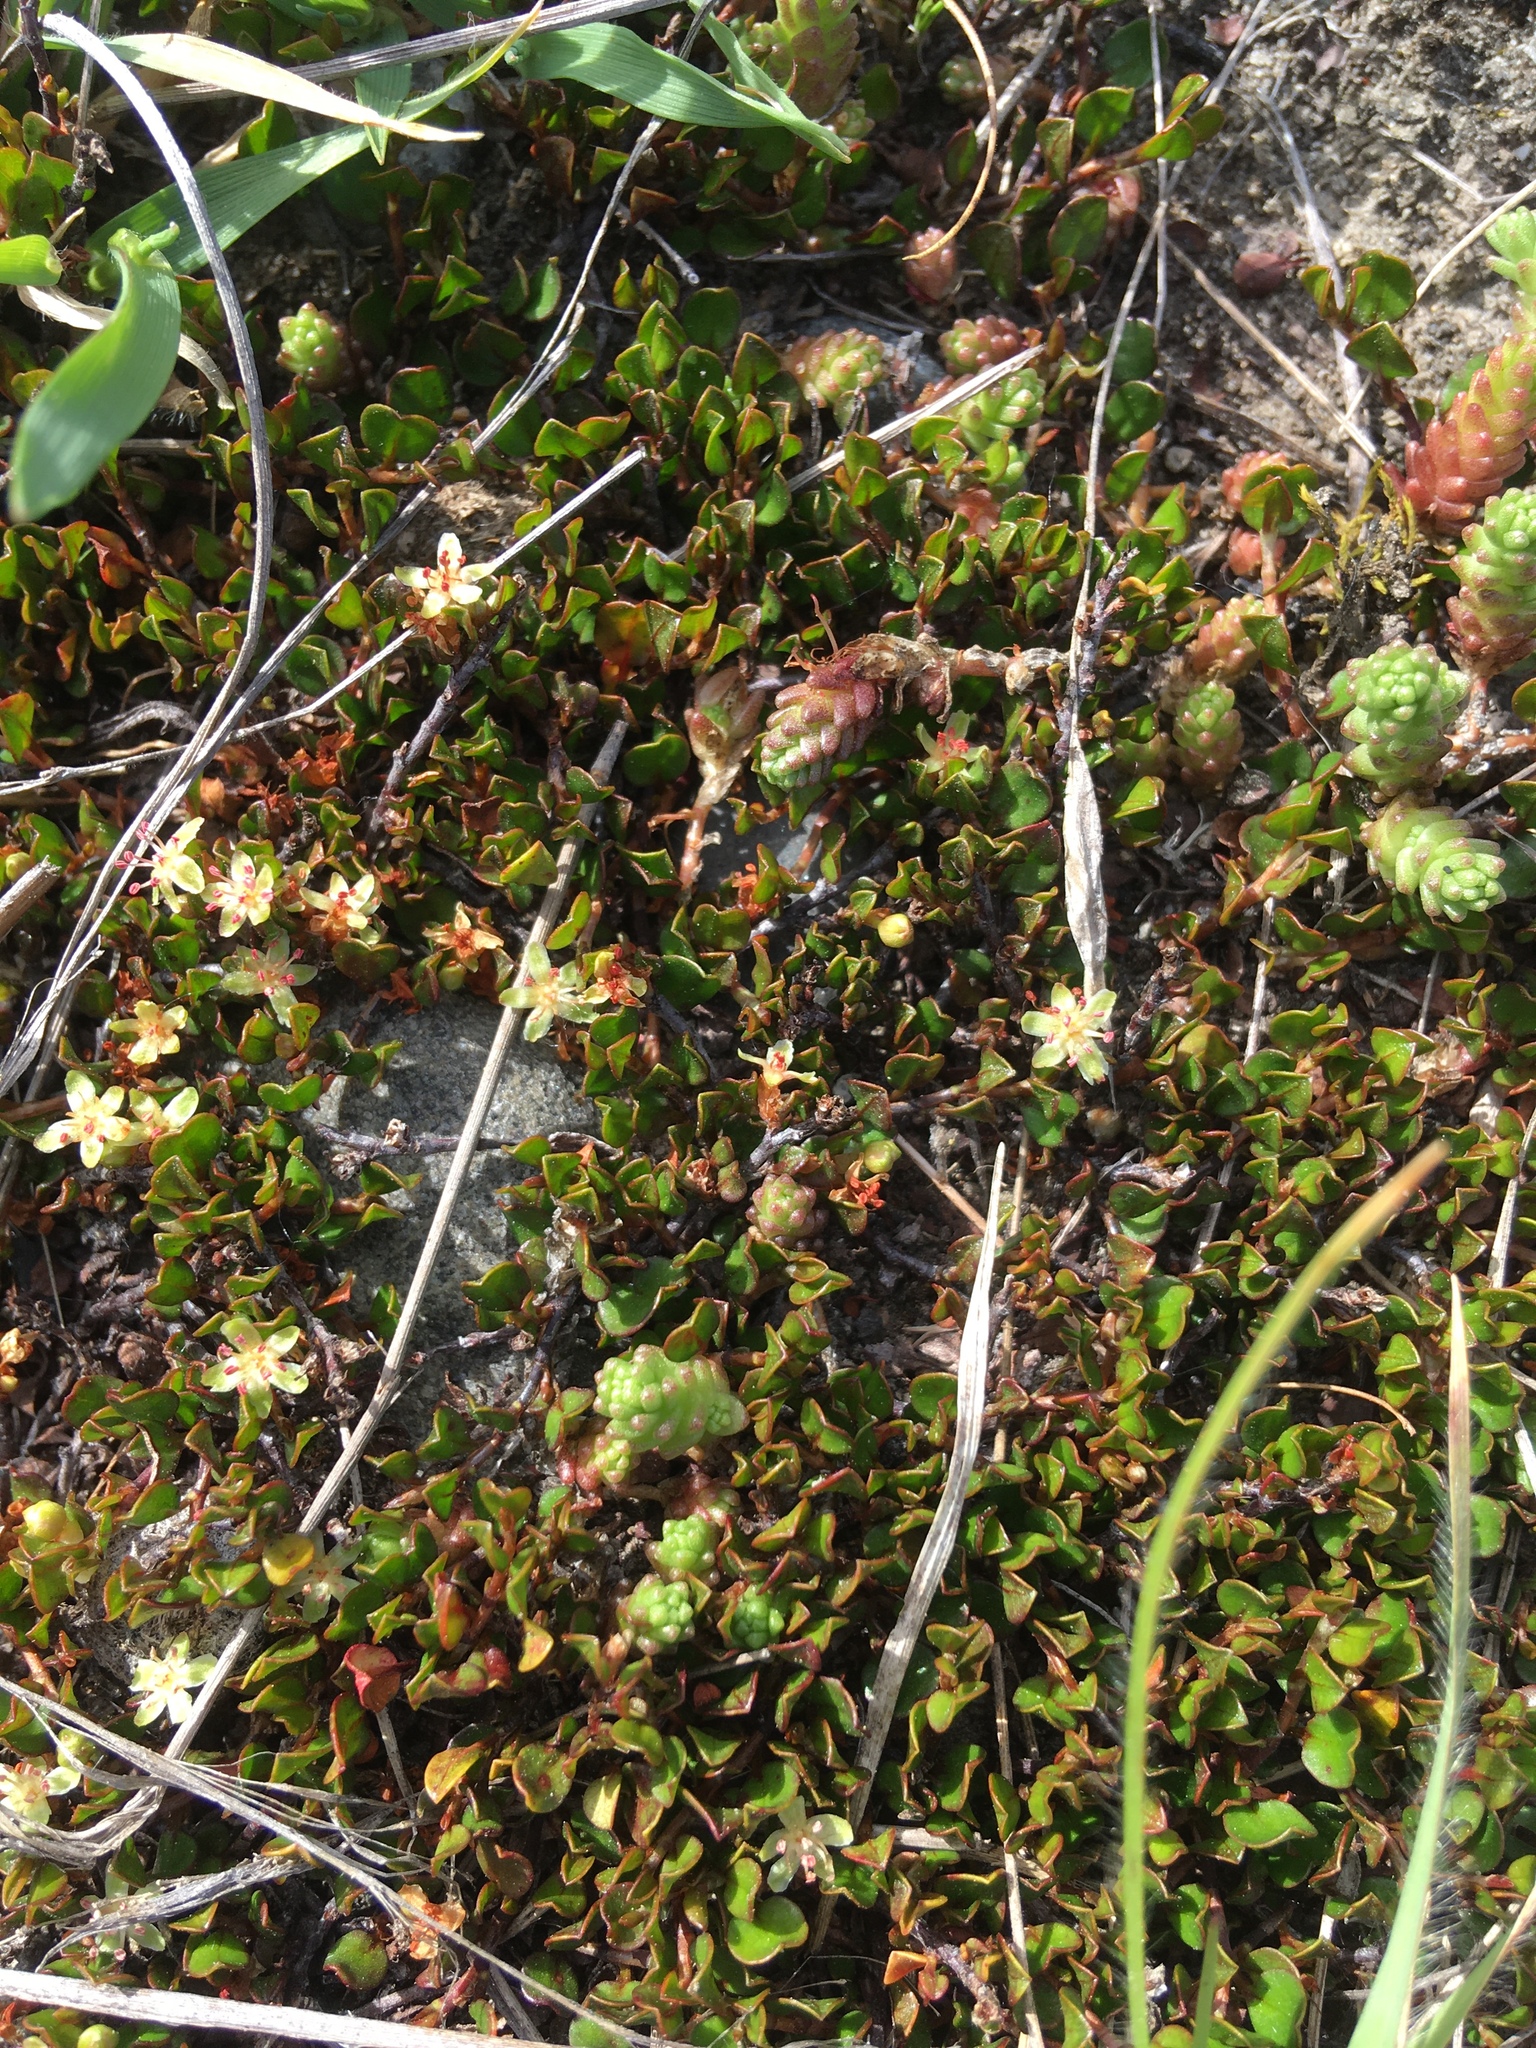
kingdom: Plantae
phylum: Tracheophyta
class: Magnoliopsida
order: Caryophyllales
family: Polygonaceae
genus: Muehlenbeckia
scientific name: Muehlenbeckia axillaris
